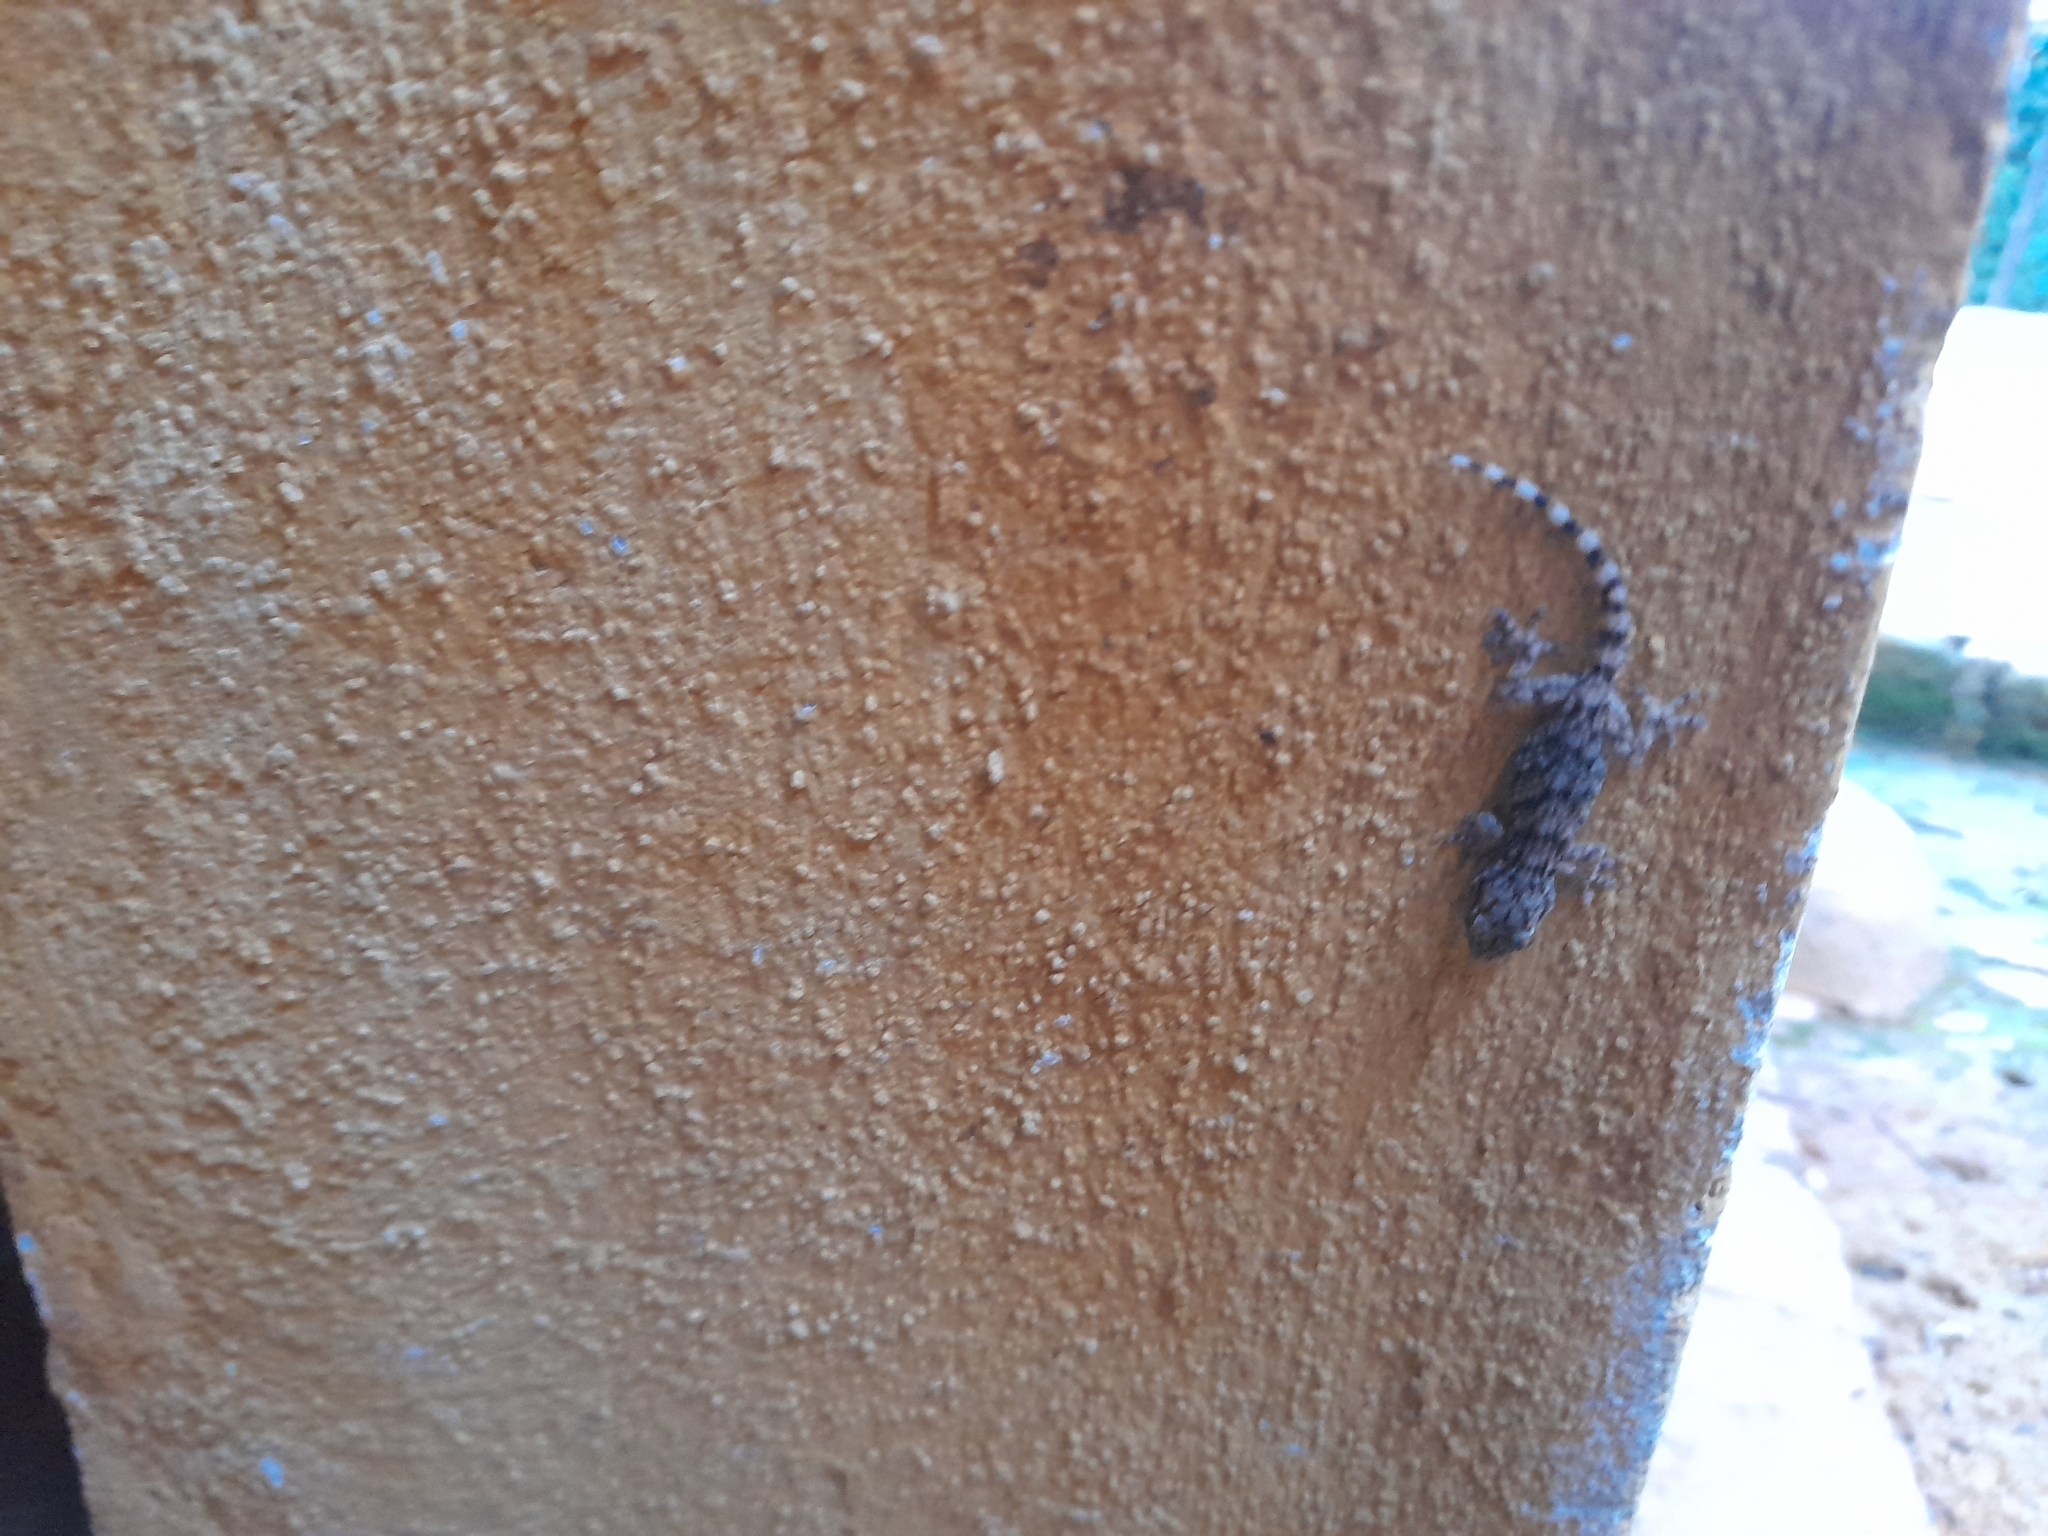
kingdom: Animalia
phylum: Chordata
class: Squamata
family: Phyllodactylidae
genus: Tarentola
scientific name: Tarentola mauritanica
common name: Moorish gecko
